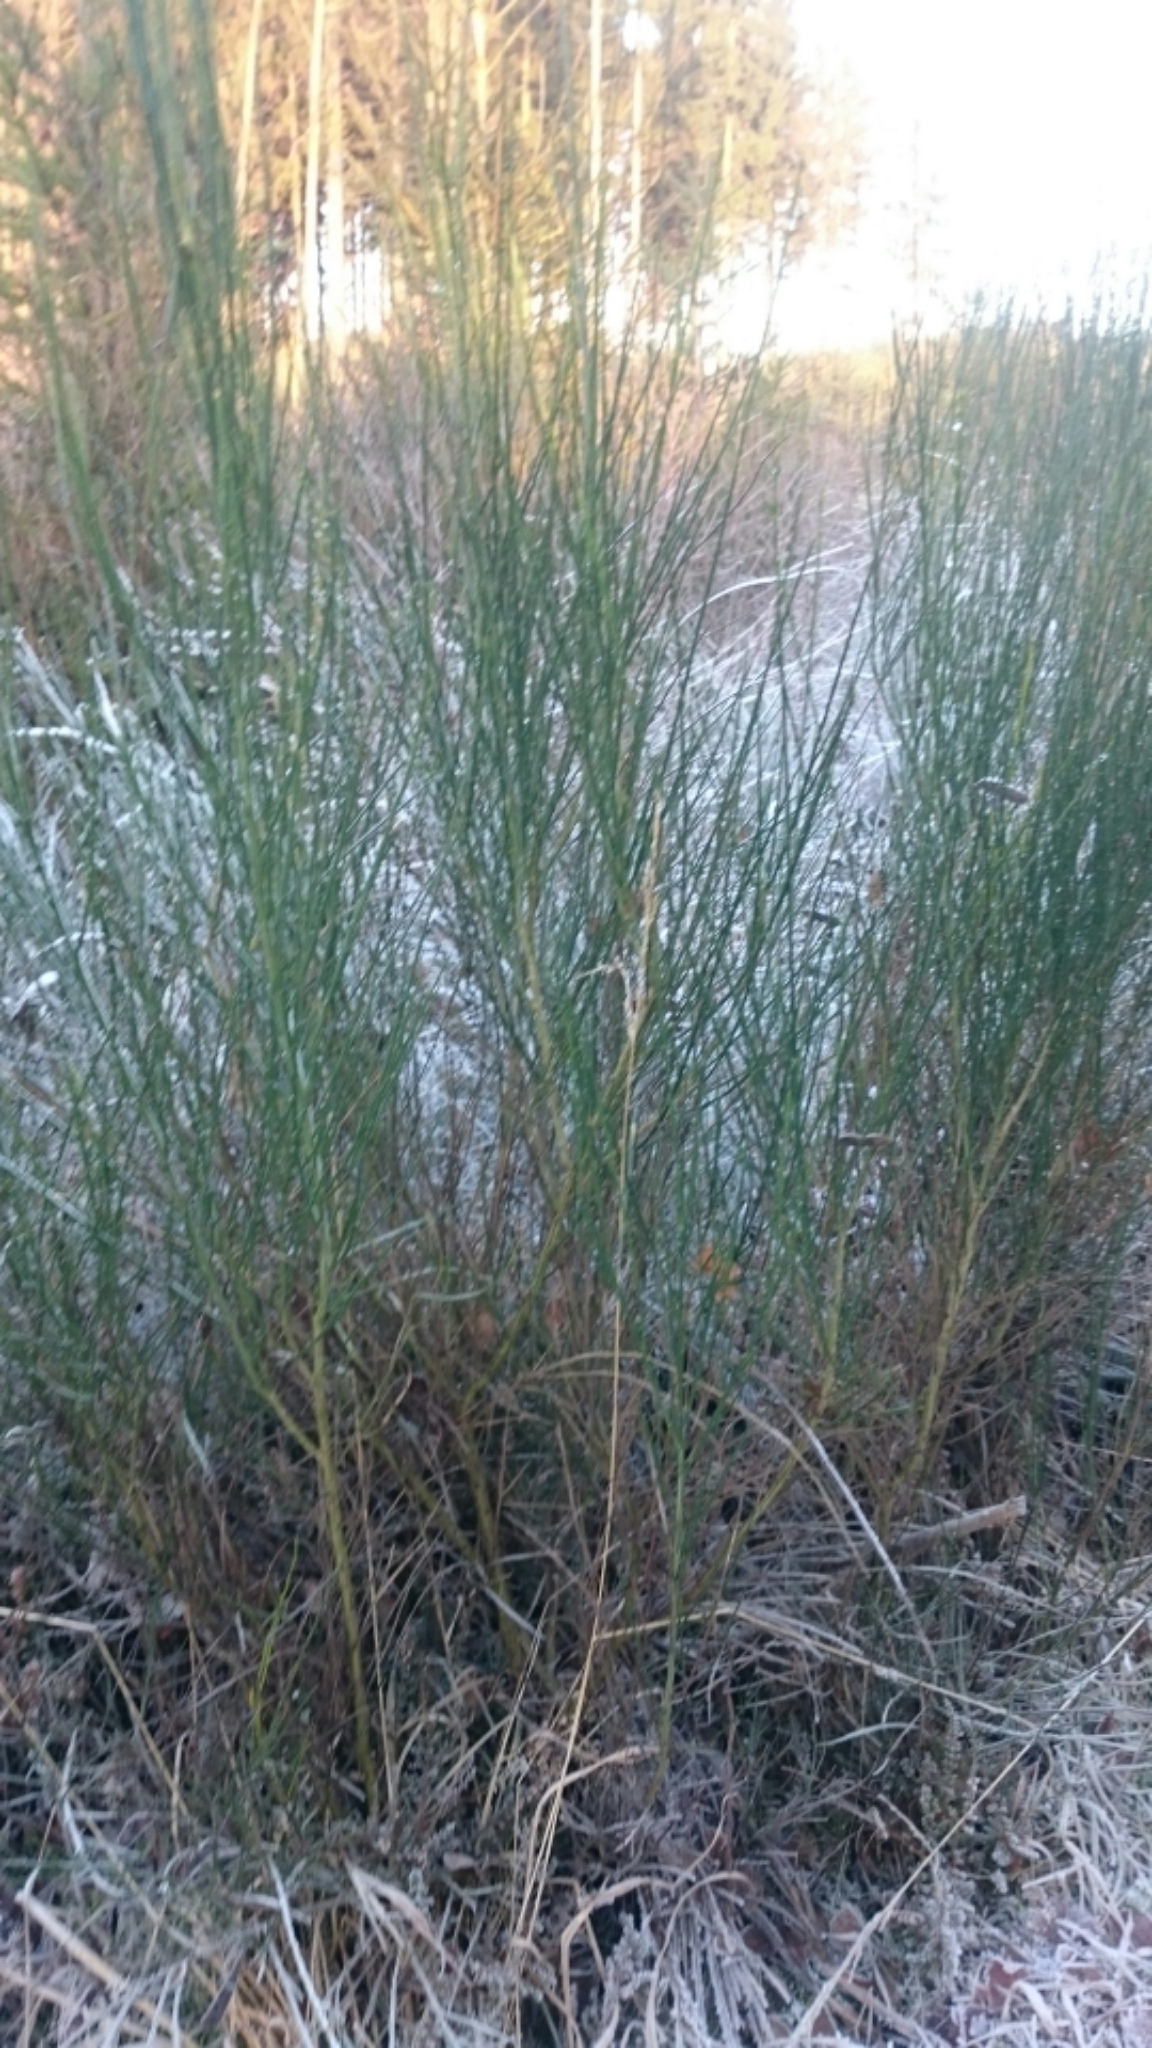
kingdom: Plantae
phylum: Tracheophyta
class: Magnoliopsida
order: Fabales
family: Fabaceae
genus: Cytisus
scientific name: Cytisus scoparius
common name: Scotch broom
